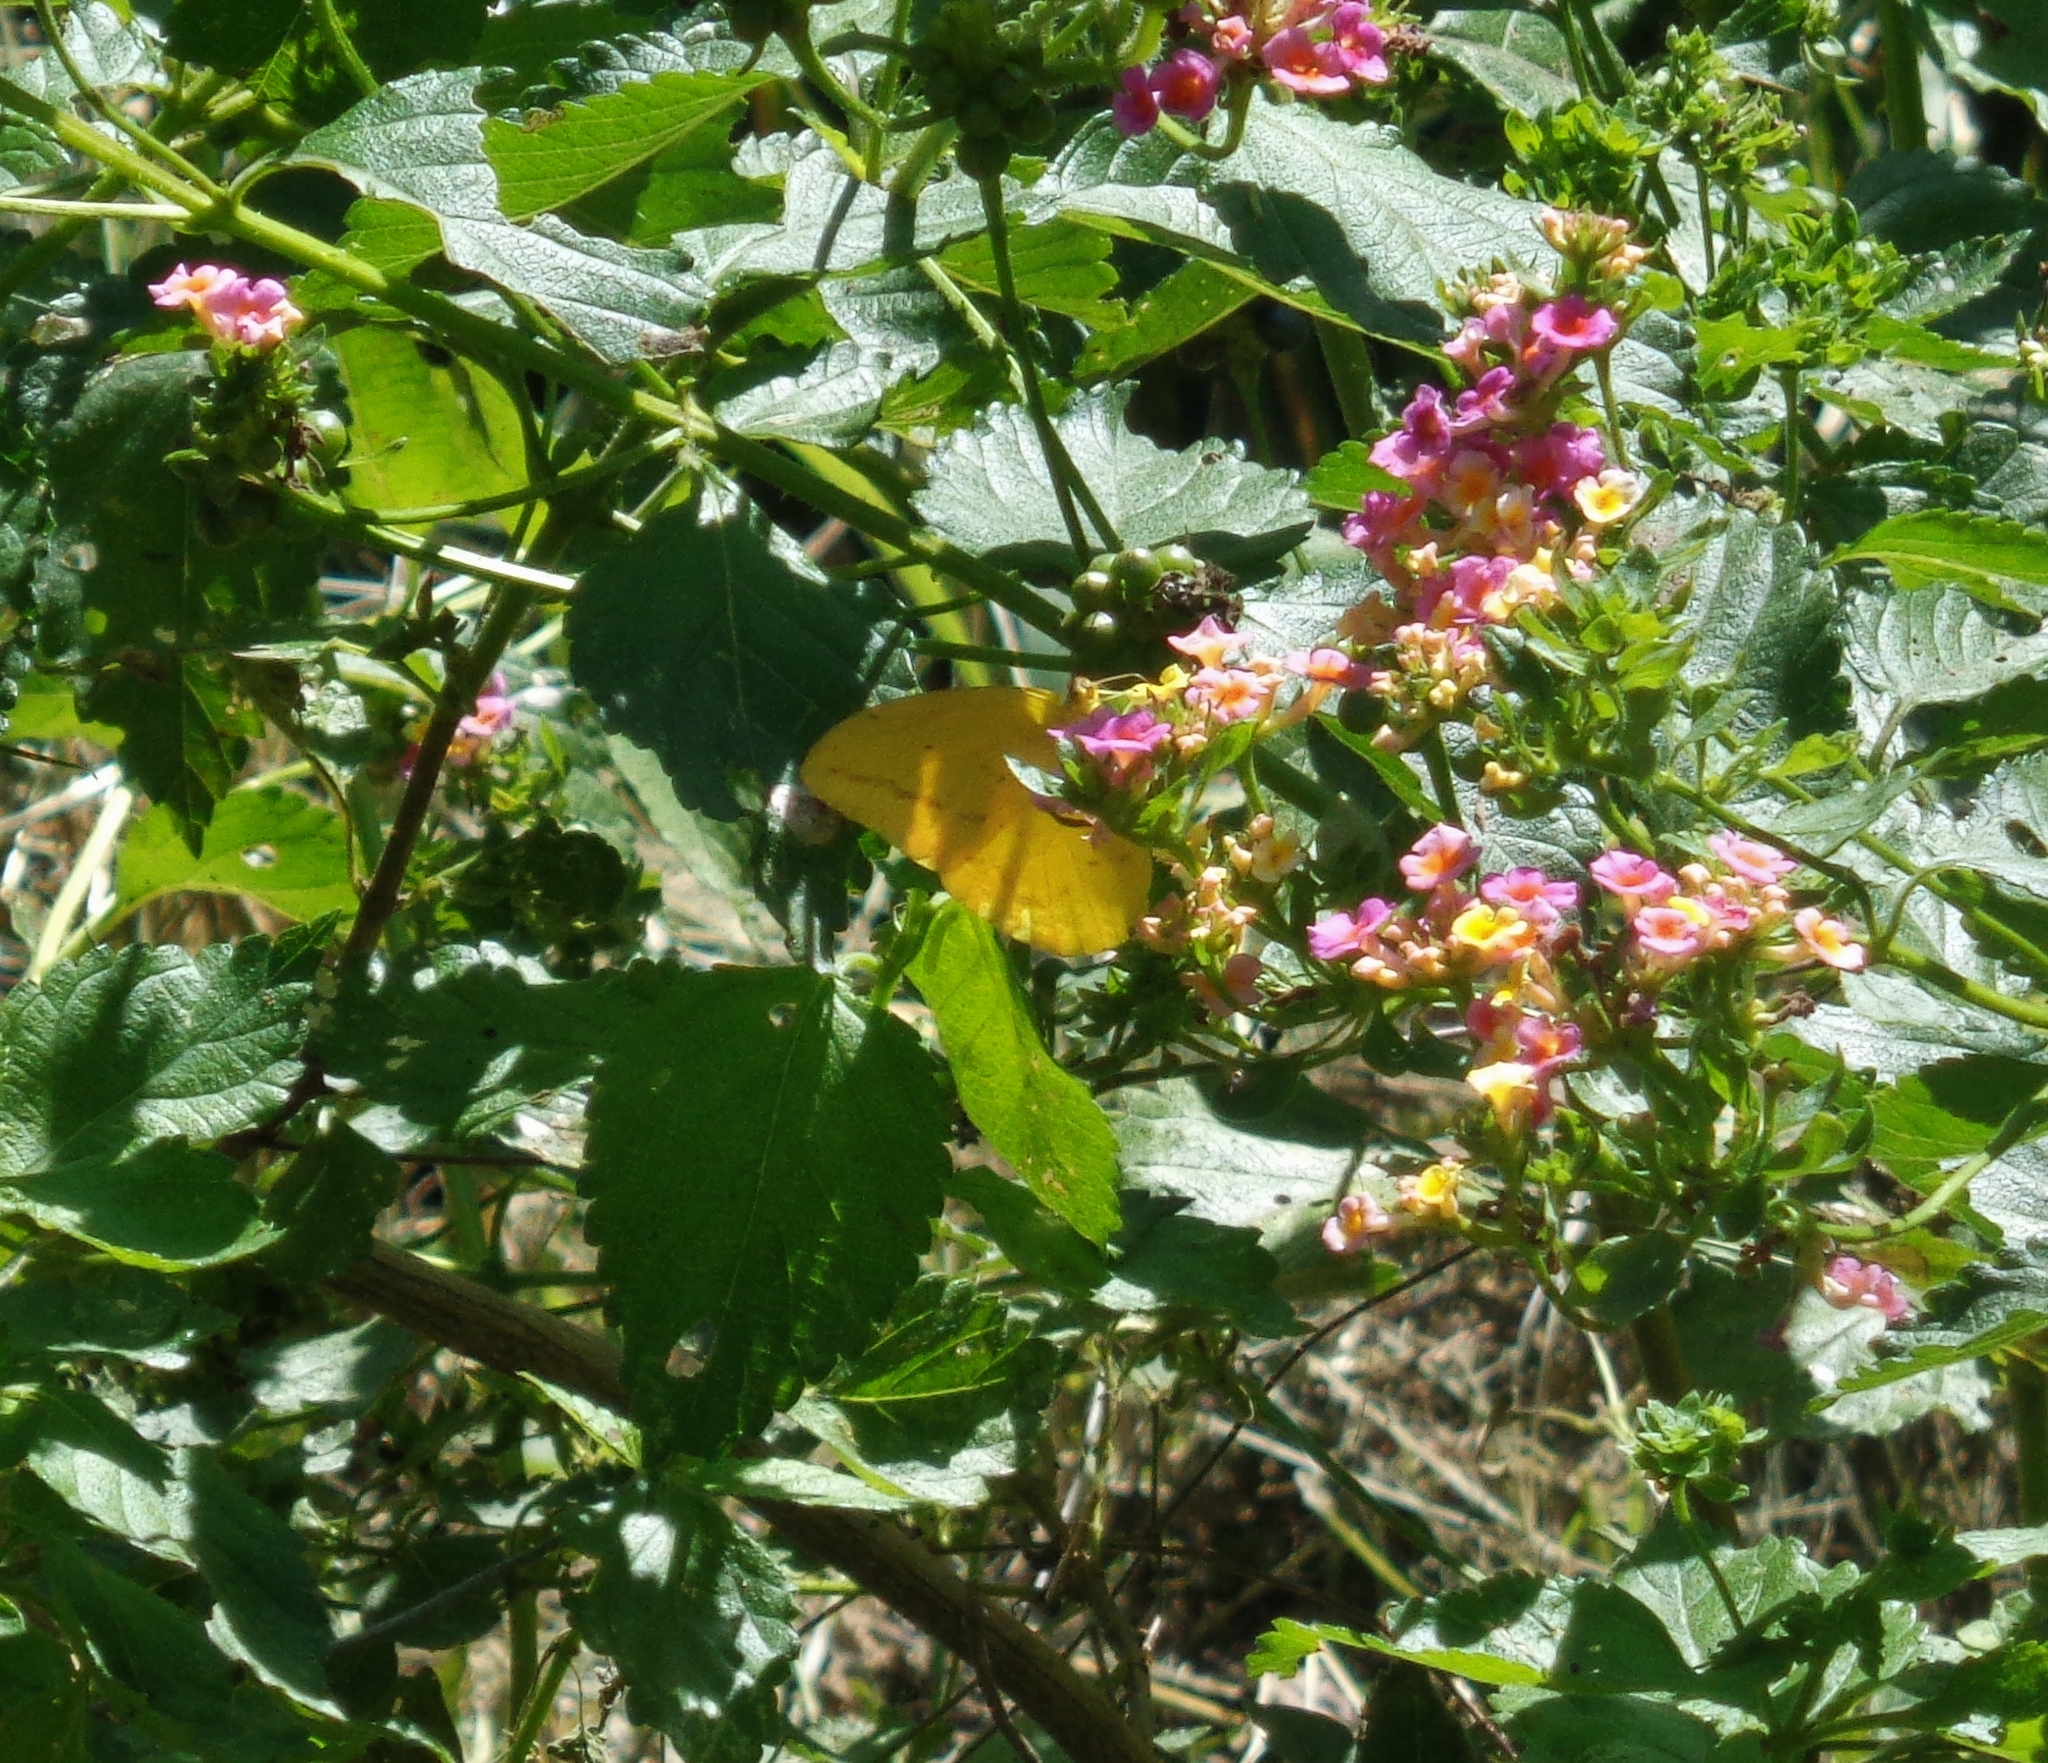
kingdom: Animalia
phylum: Arthropoda
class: Insecta
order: Lepidoptera
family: Pieridae
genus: Phoebis
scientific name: Phoebis agarithe
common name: Large orange sulphur
